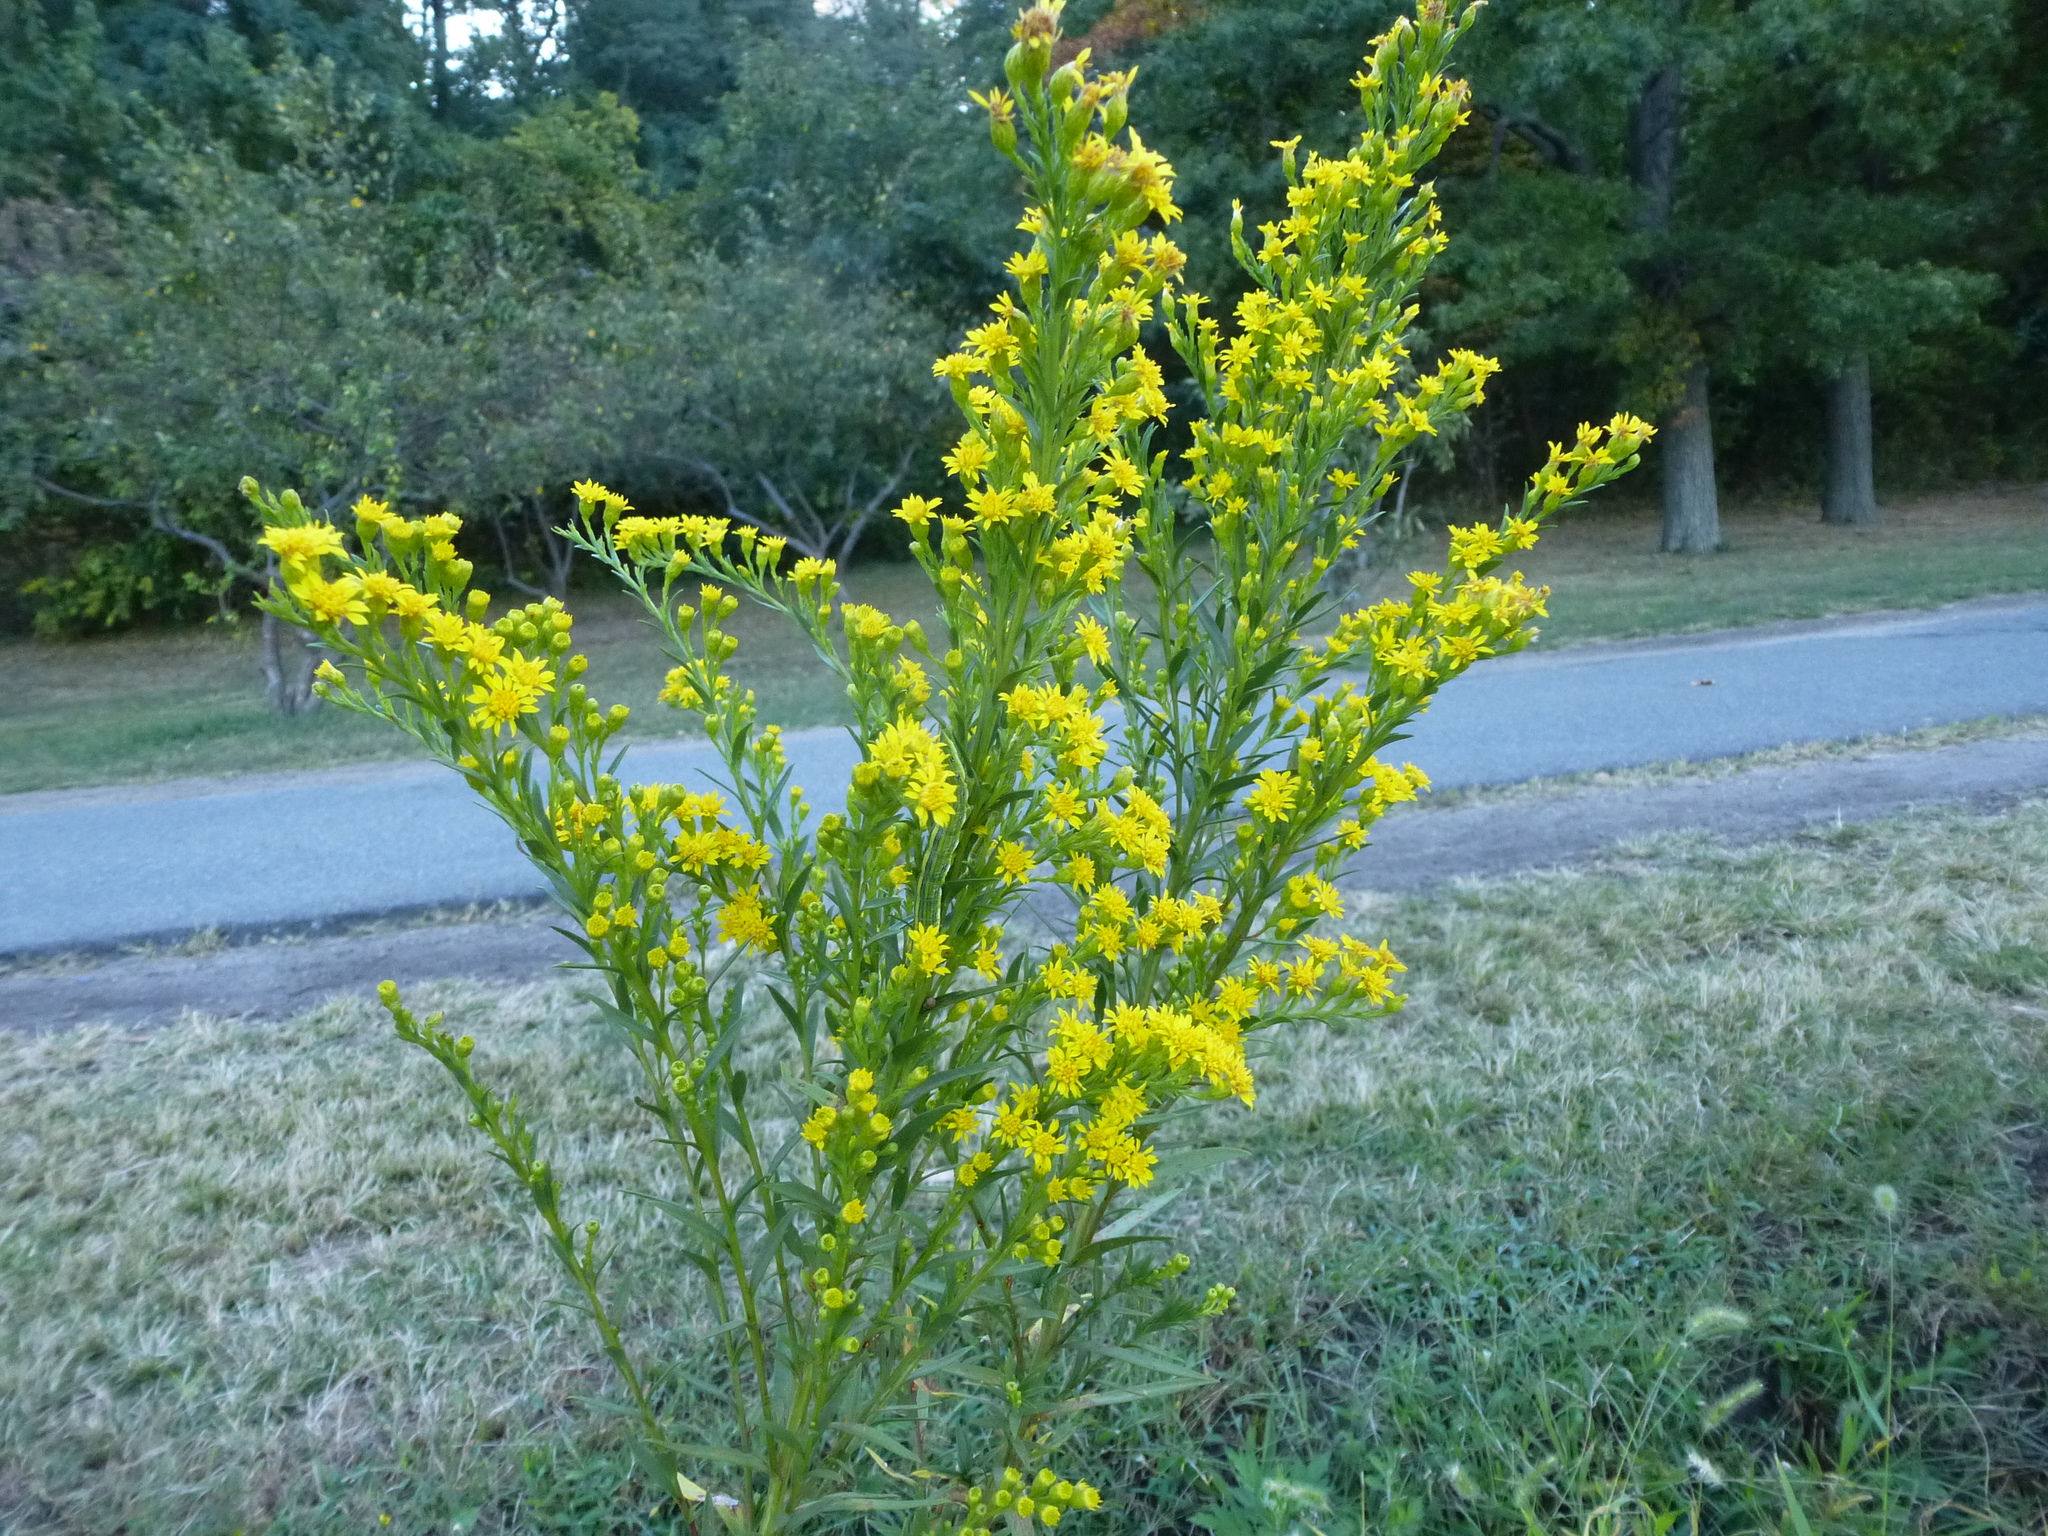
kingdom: Plantae
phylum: Tracheophyta
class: Magnoliopsida
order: Asterales
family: Asteraceae
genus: Solidago
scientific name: Solidago sempervirens
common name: Salt-marsh goldenrod
